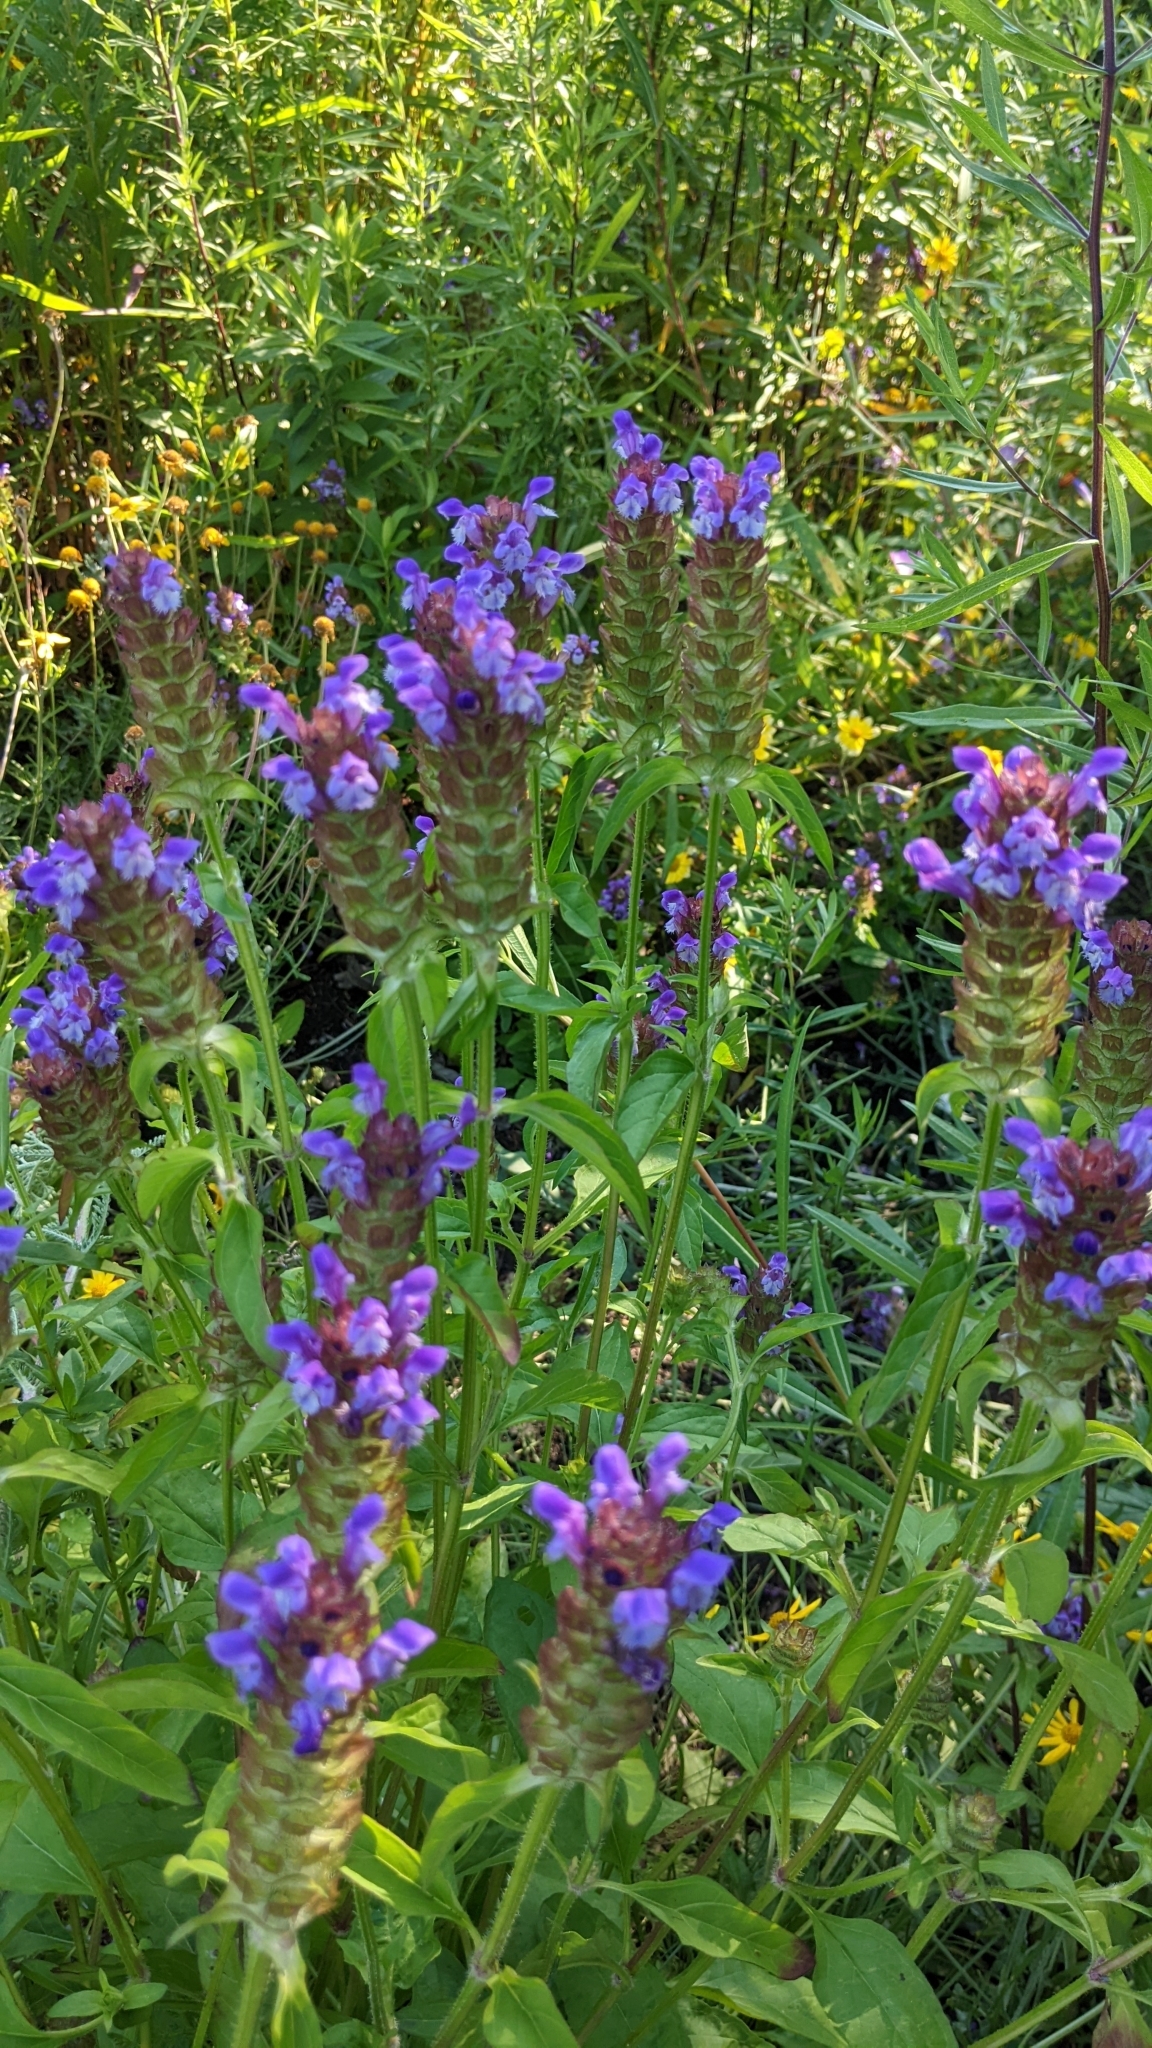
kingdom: Plantae
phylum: Tracheophyta
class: Magnoliopsida
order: Lamiales
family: Lamiaceae
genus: Prunella
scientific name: Prunella vulgaris
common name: Heal-all
